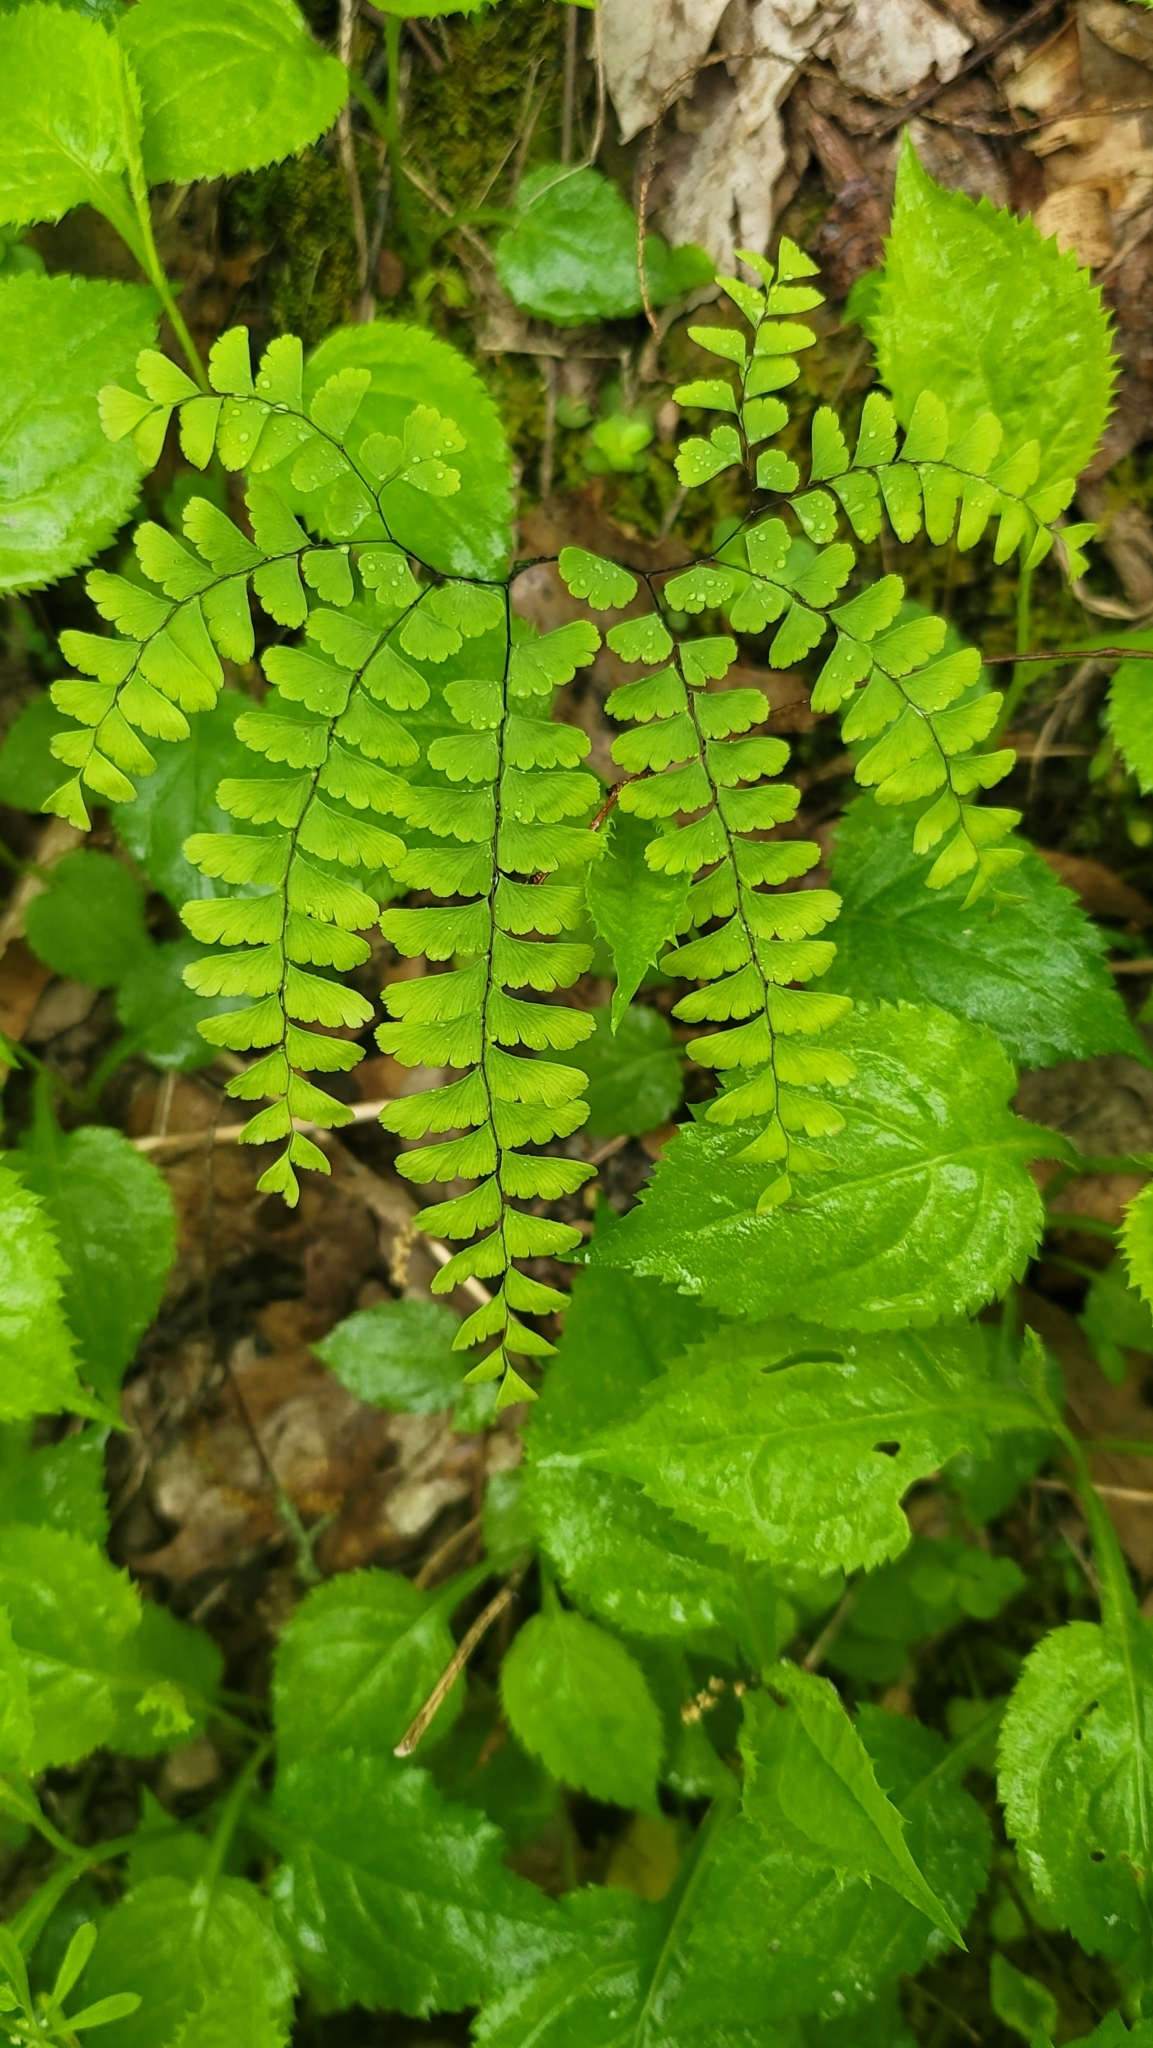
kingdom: Plantae
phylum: Tracheophyta
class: Polypodiopsida
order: Polypodiales
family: Pteridaceae
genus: Adiantum
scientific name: Adiantum pedatum
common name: Five-finger fern
